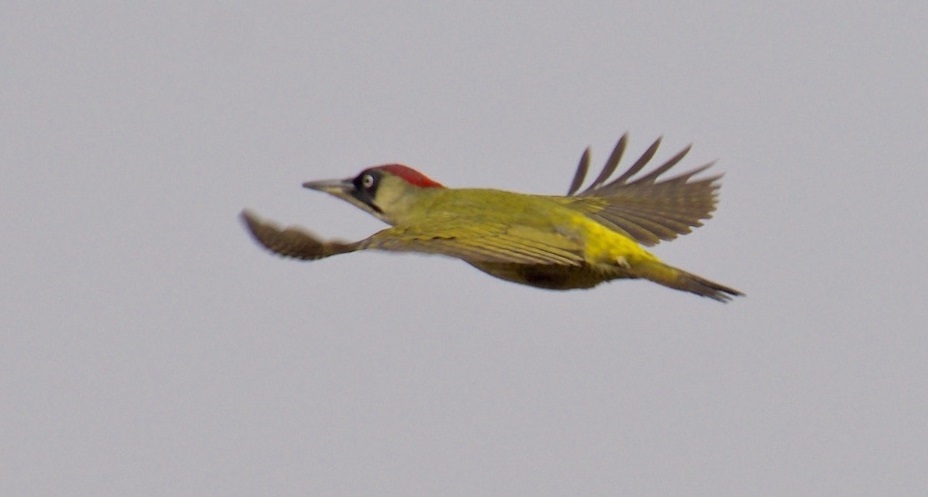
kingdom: Animalia
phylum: Chordata
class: Aves
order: Piciformes
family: Picidae
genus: Picus
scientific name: Picus viridis
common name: European green woodpecker
